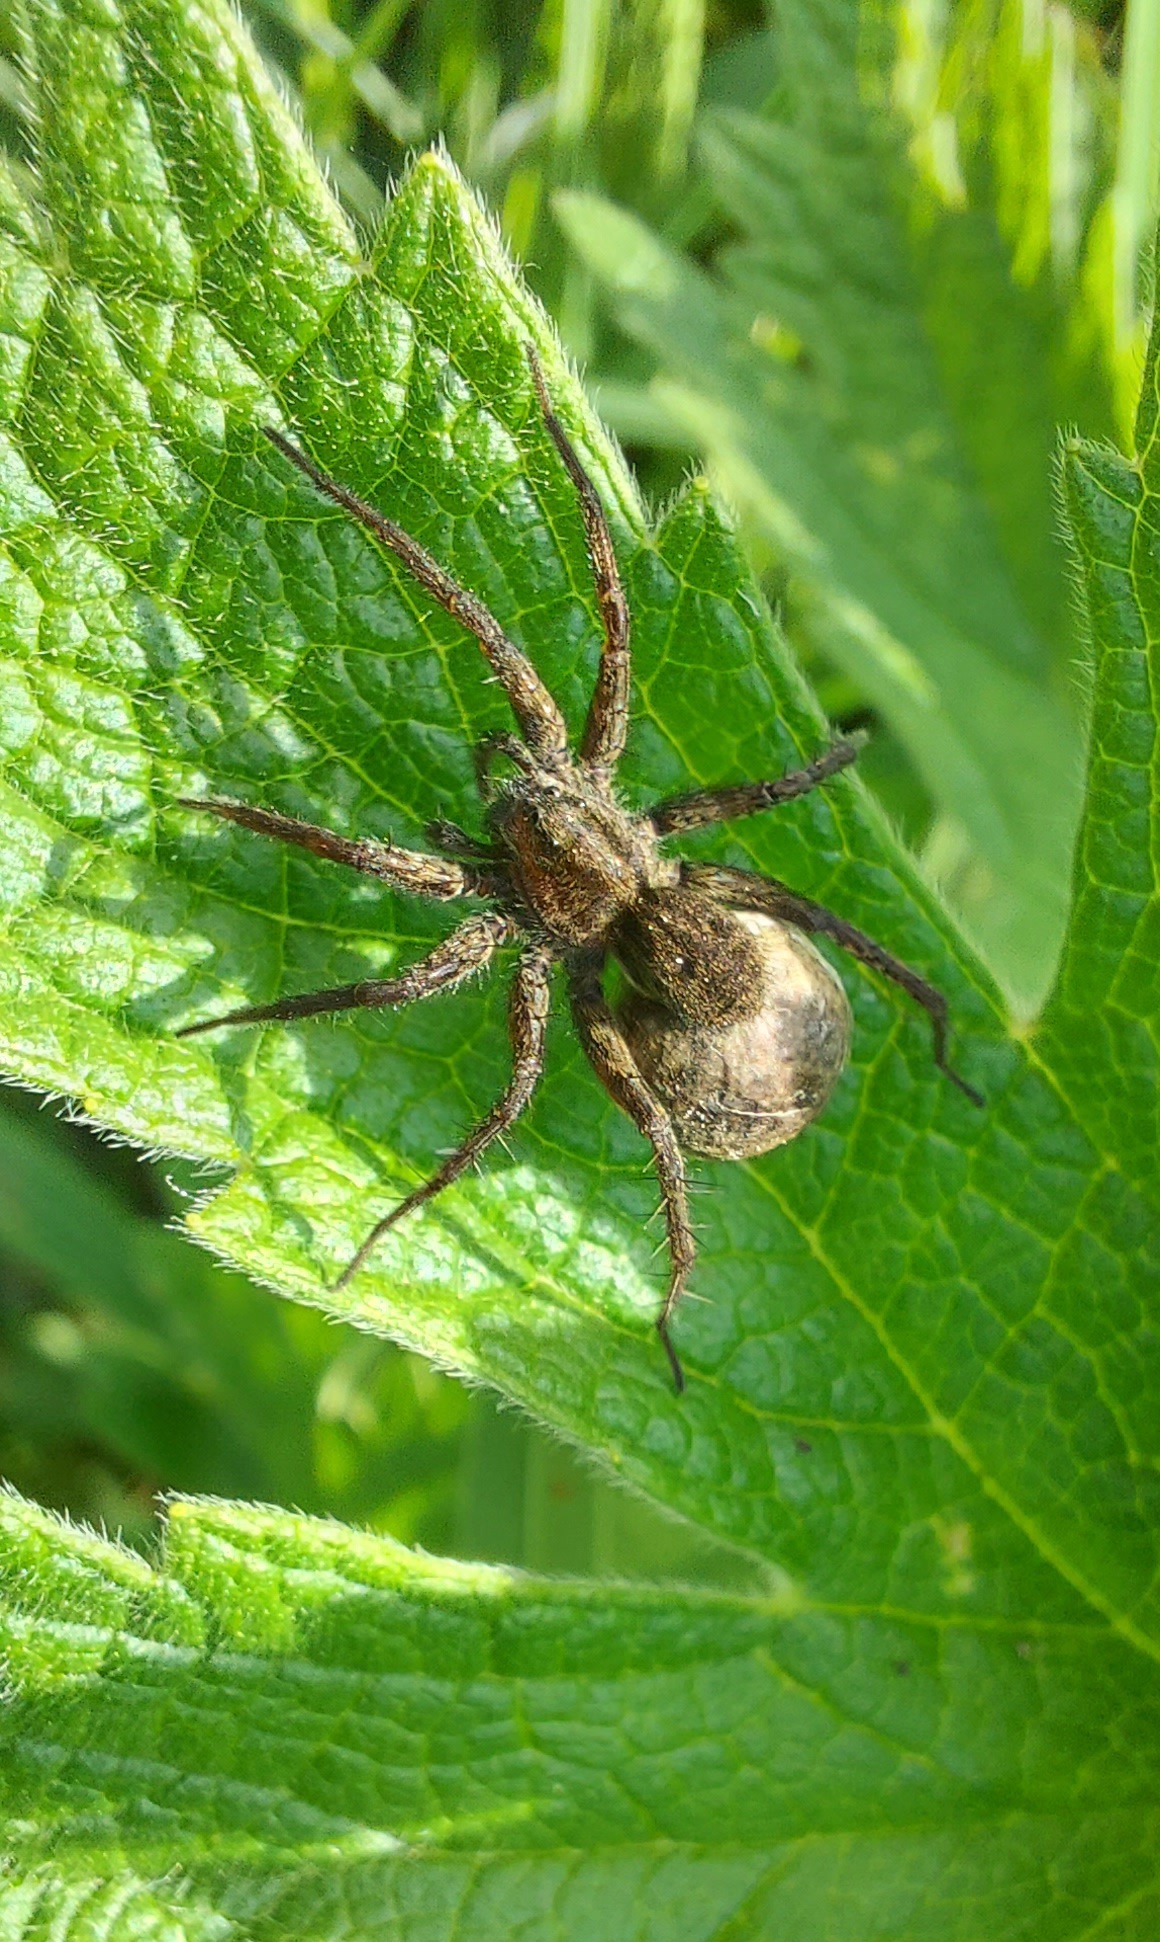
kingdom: Animalia
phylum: Arthropoda
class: Arachnida
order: Araneae
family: Lycosidae
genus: Pardosa
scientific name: Pardosa
